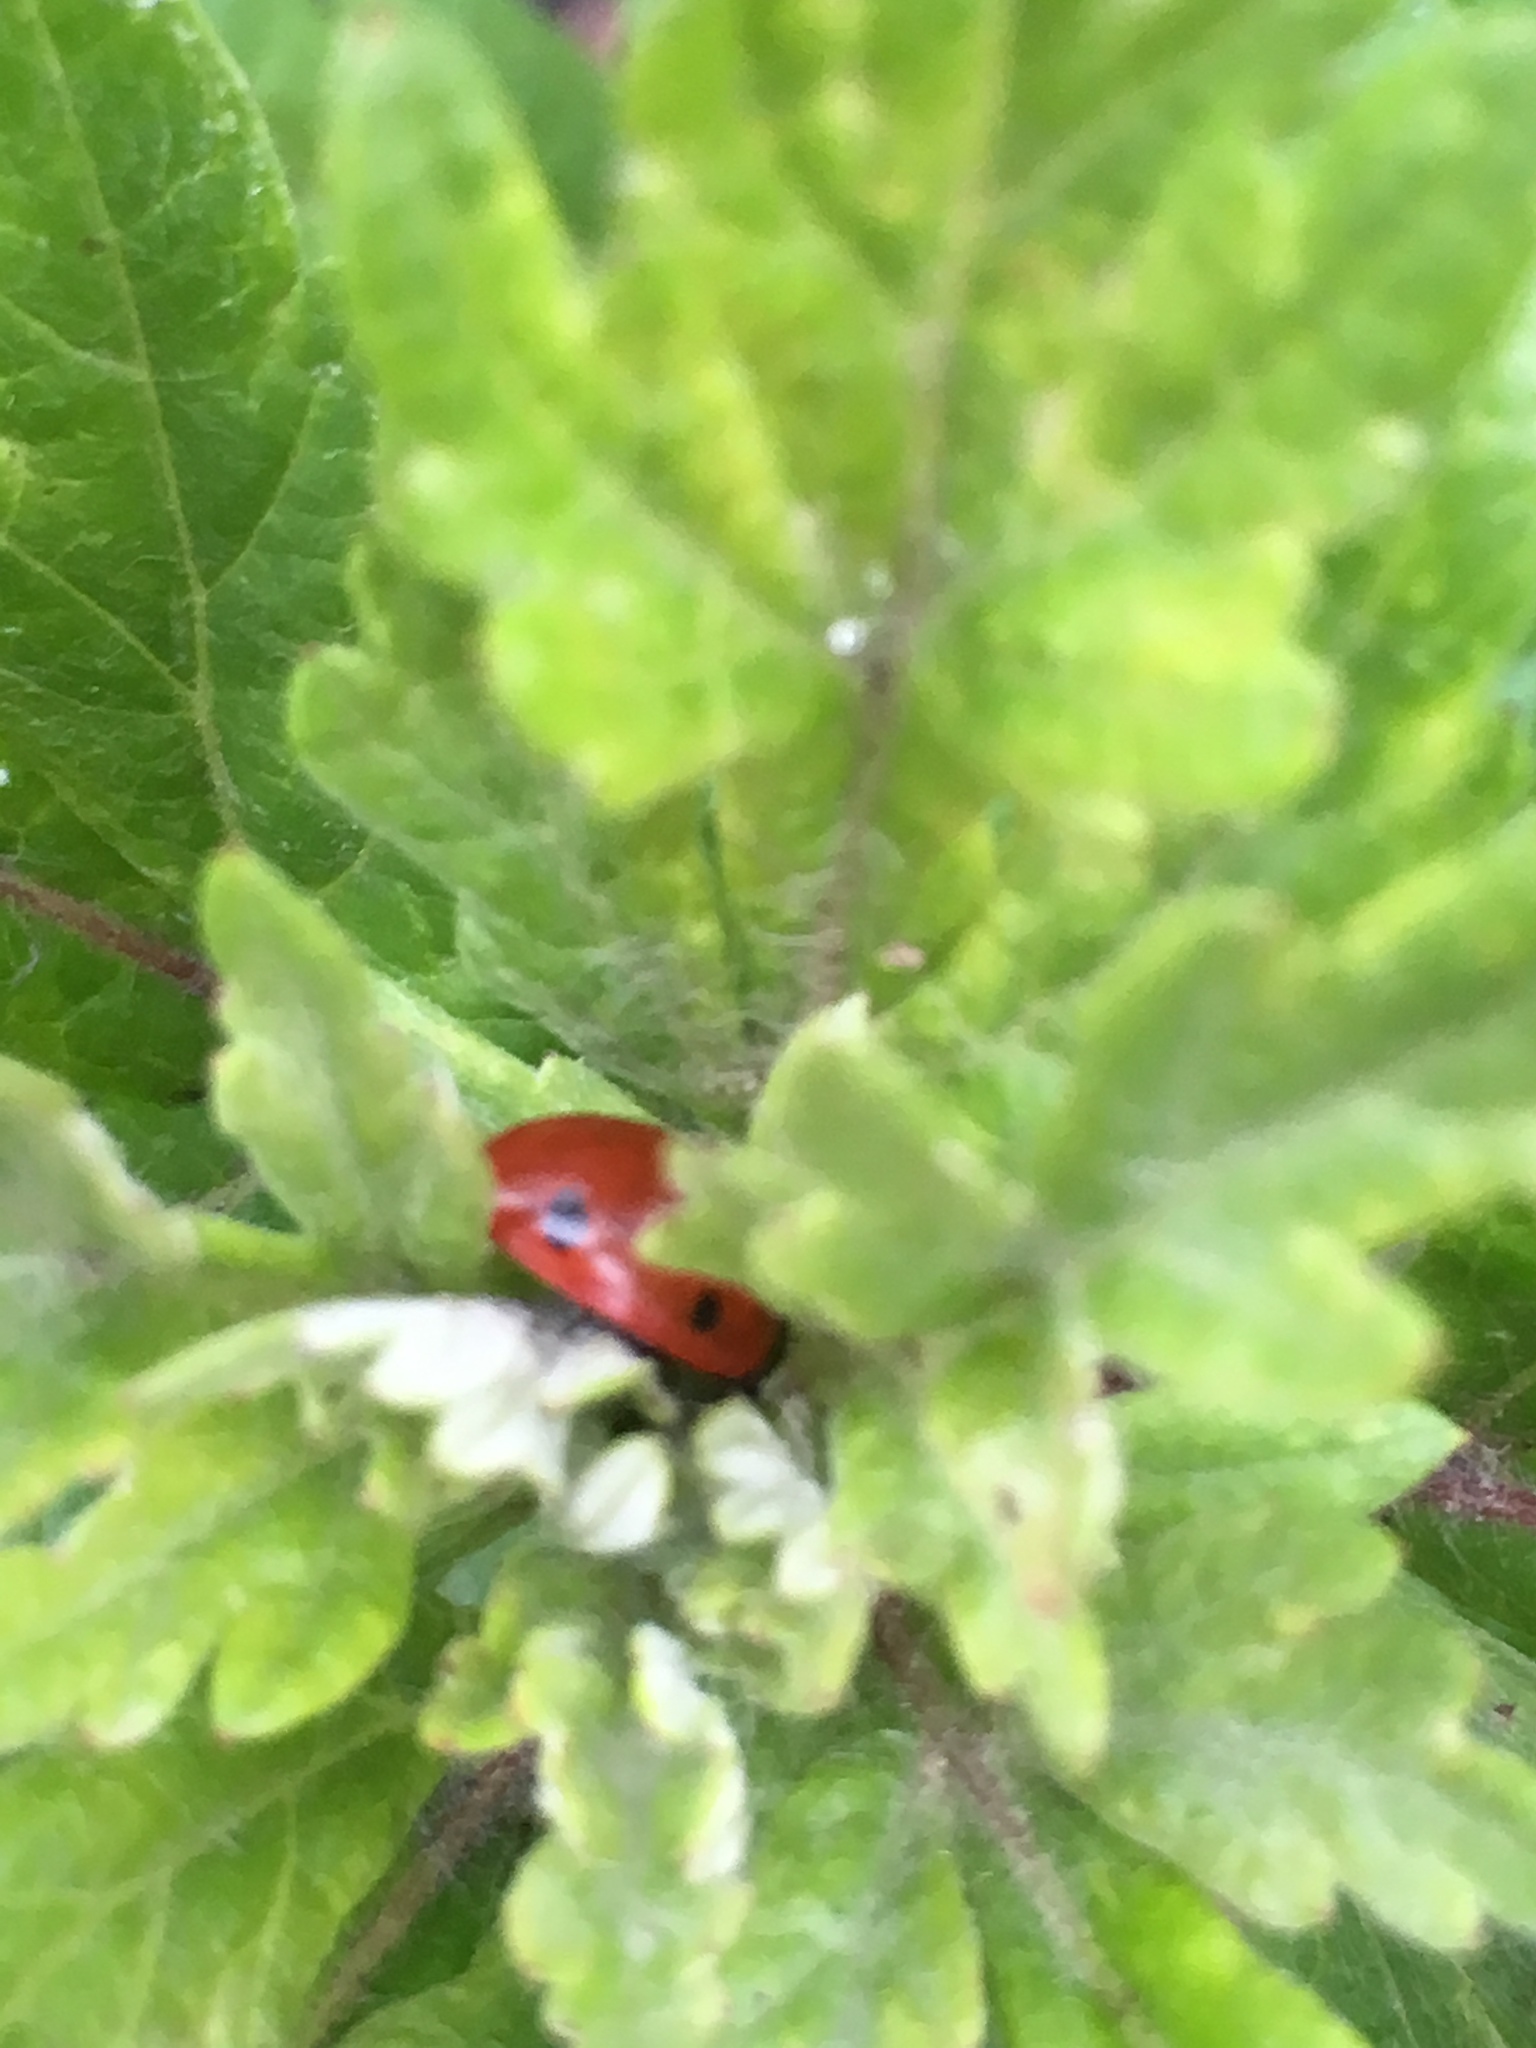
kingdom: Animalia
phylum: Arthropoda
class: Insecta
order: Coleoptera
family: Coccinellidae
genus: Coccinella
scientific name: Coccinella septempunctata
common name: Sevenspotted lady beetle
